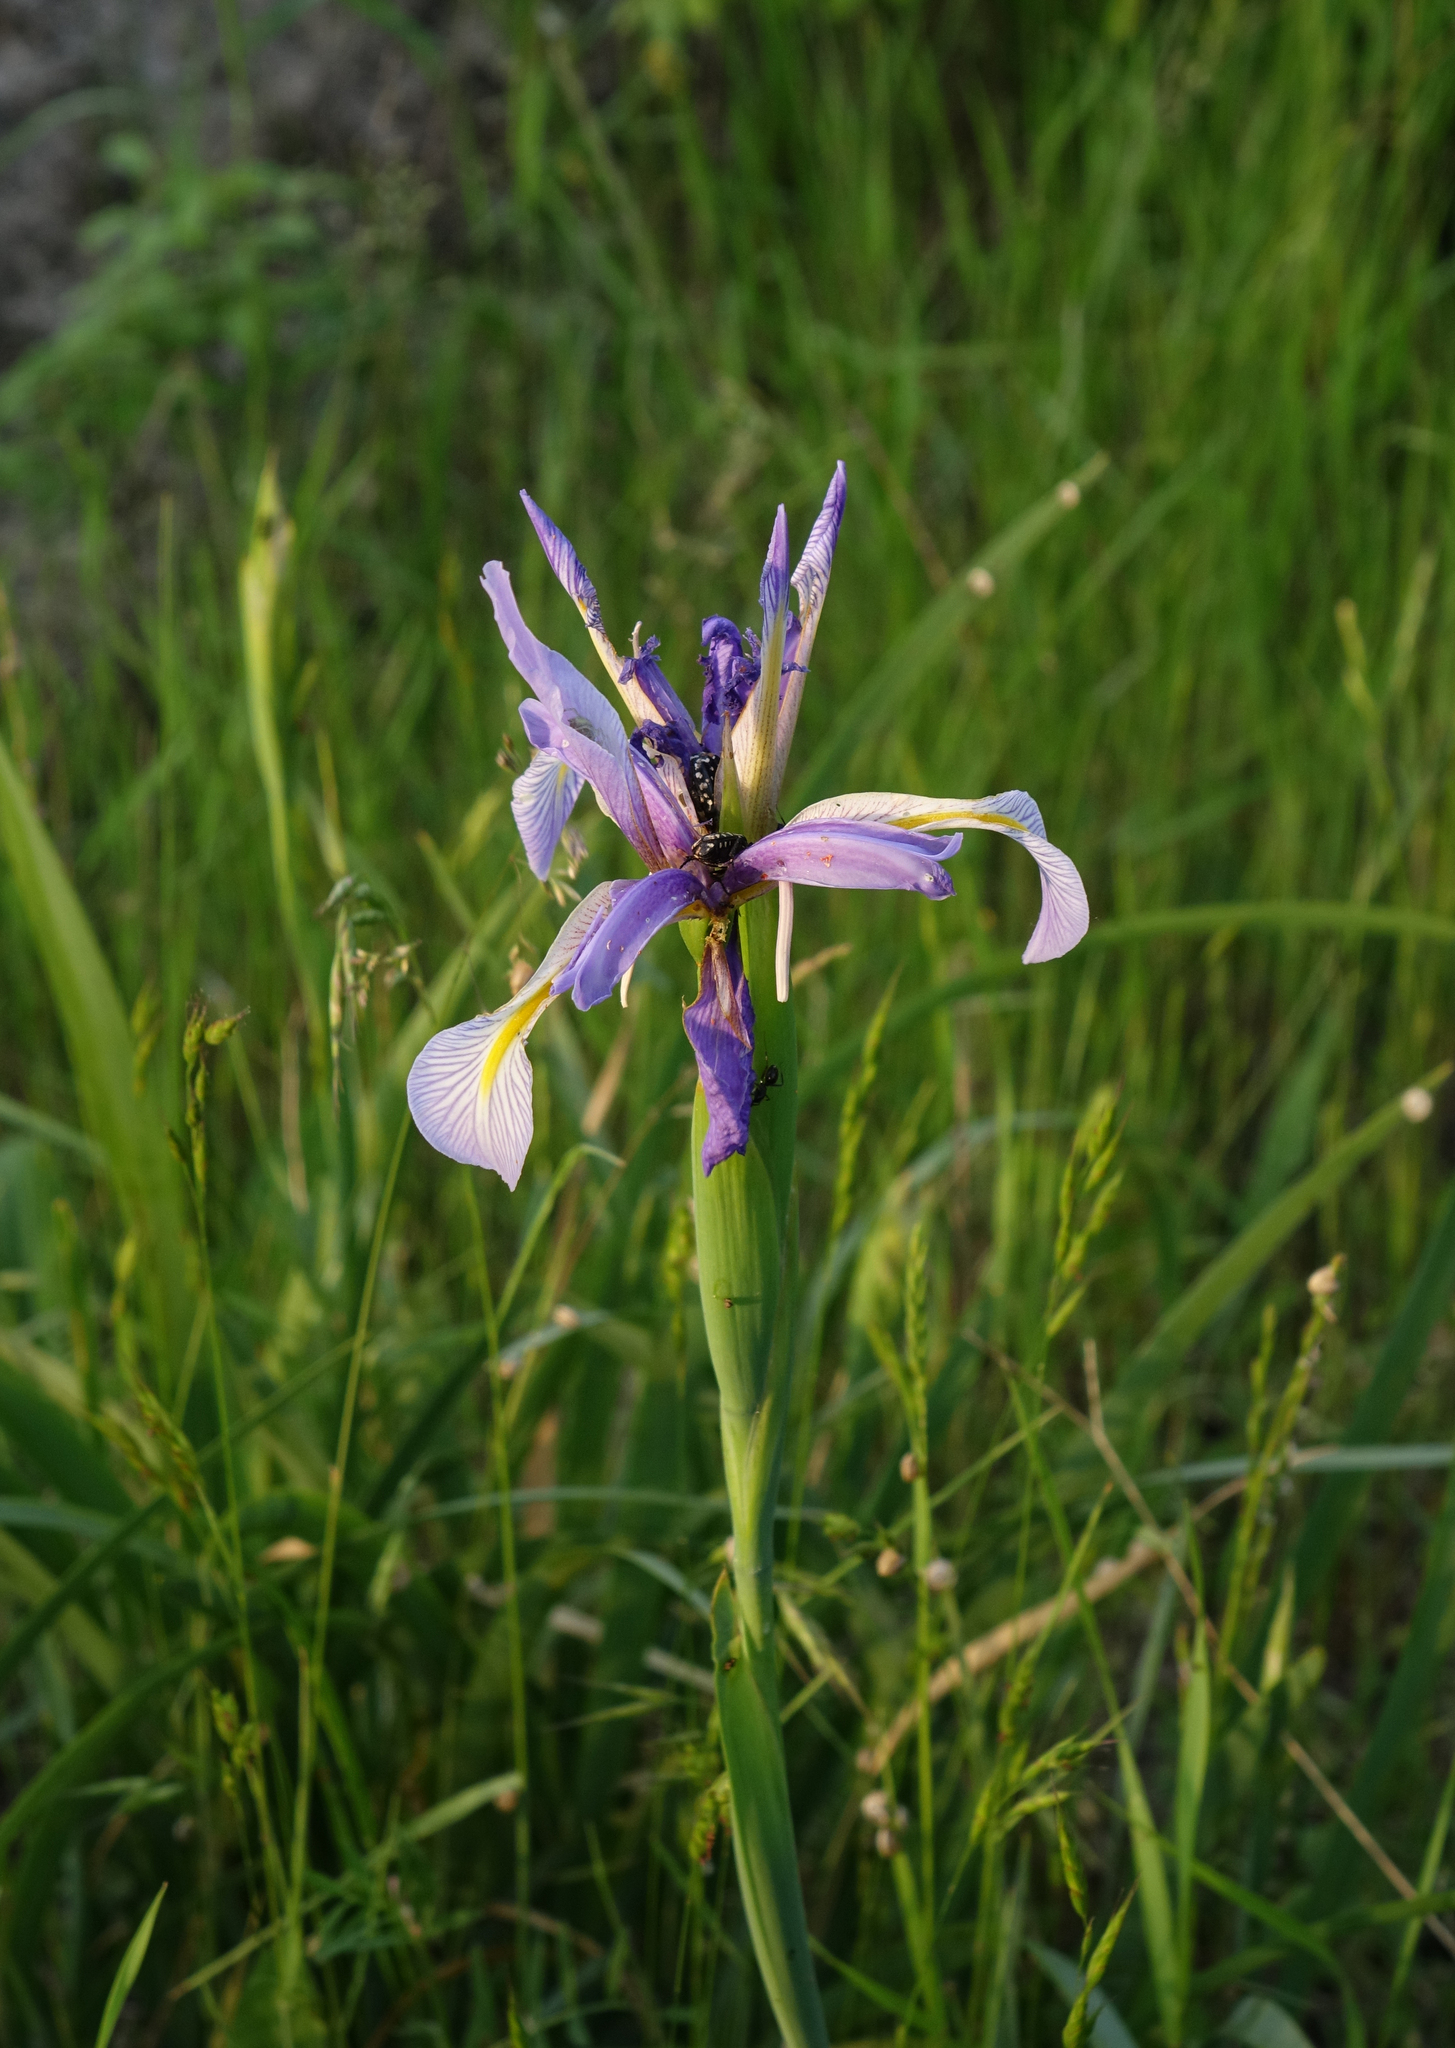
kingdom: Plantae
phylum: Tracheophyta
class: Liliopsida
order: Asparagales
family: Iridaceae
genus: Iris
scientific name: Iris pseudonotha
